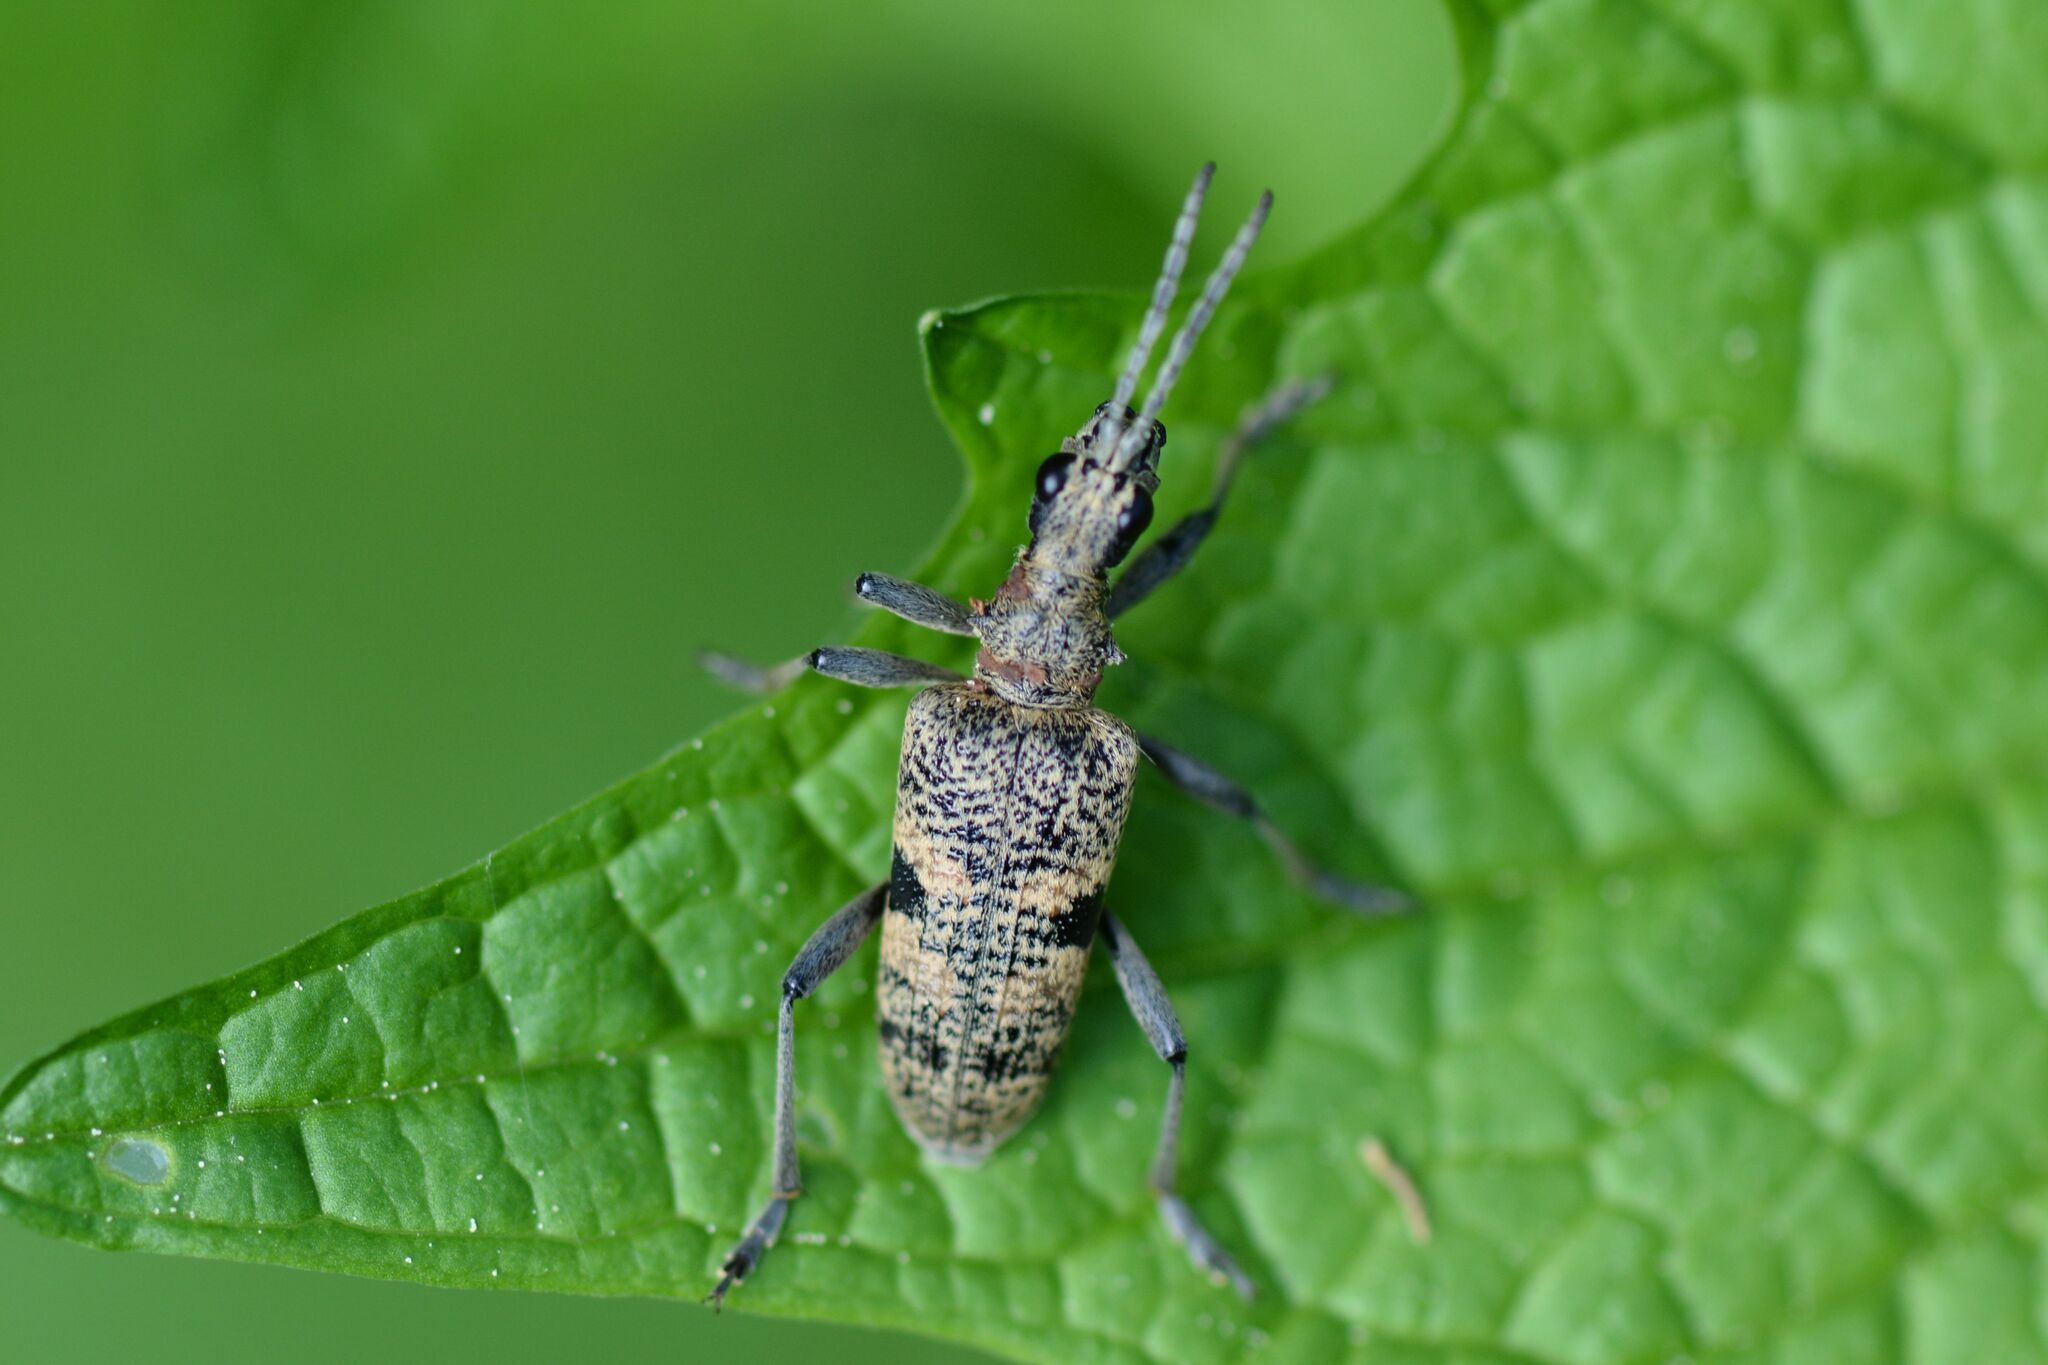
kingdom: Animalia
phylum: Arthropoda
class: Insecta
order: Coleoptera
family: Cerambycidae
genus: Rhagium
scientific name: Rhagium mordax
